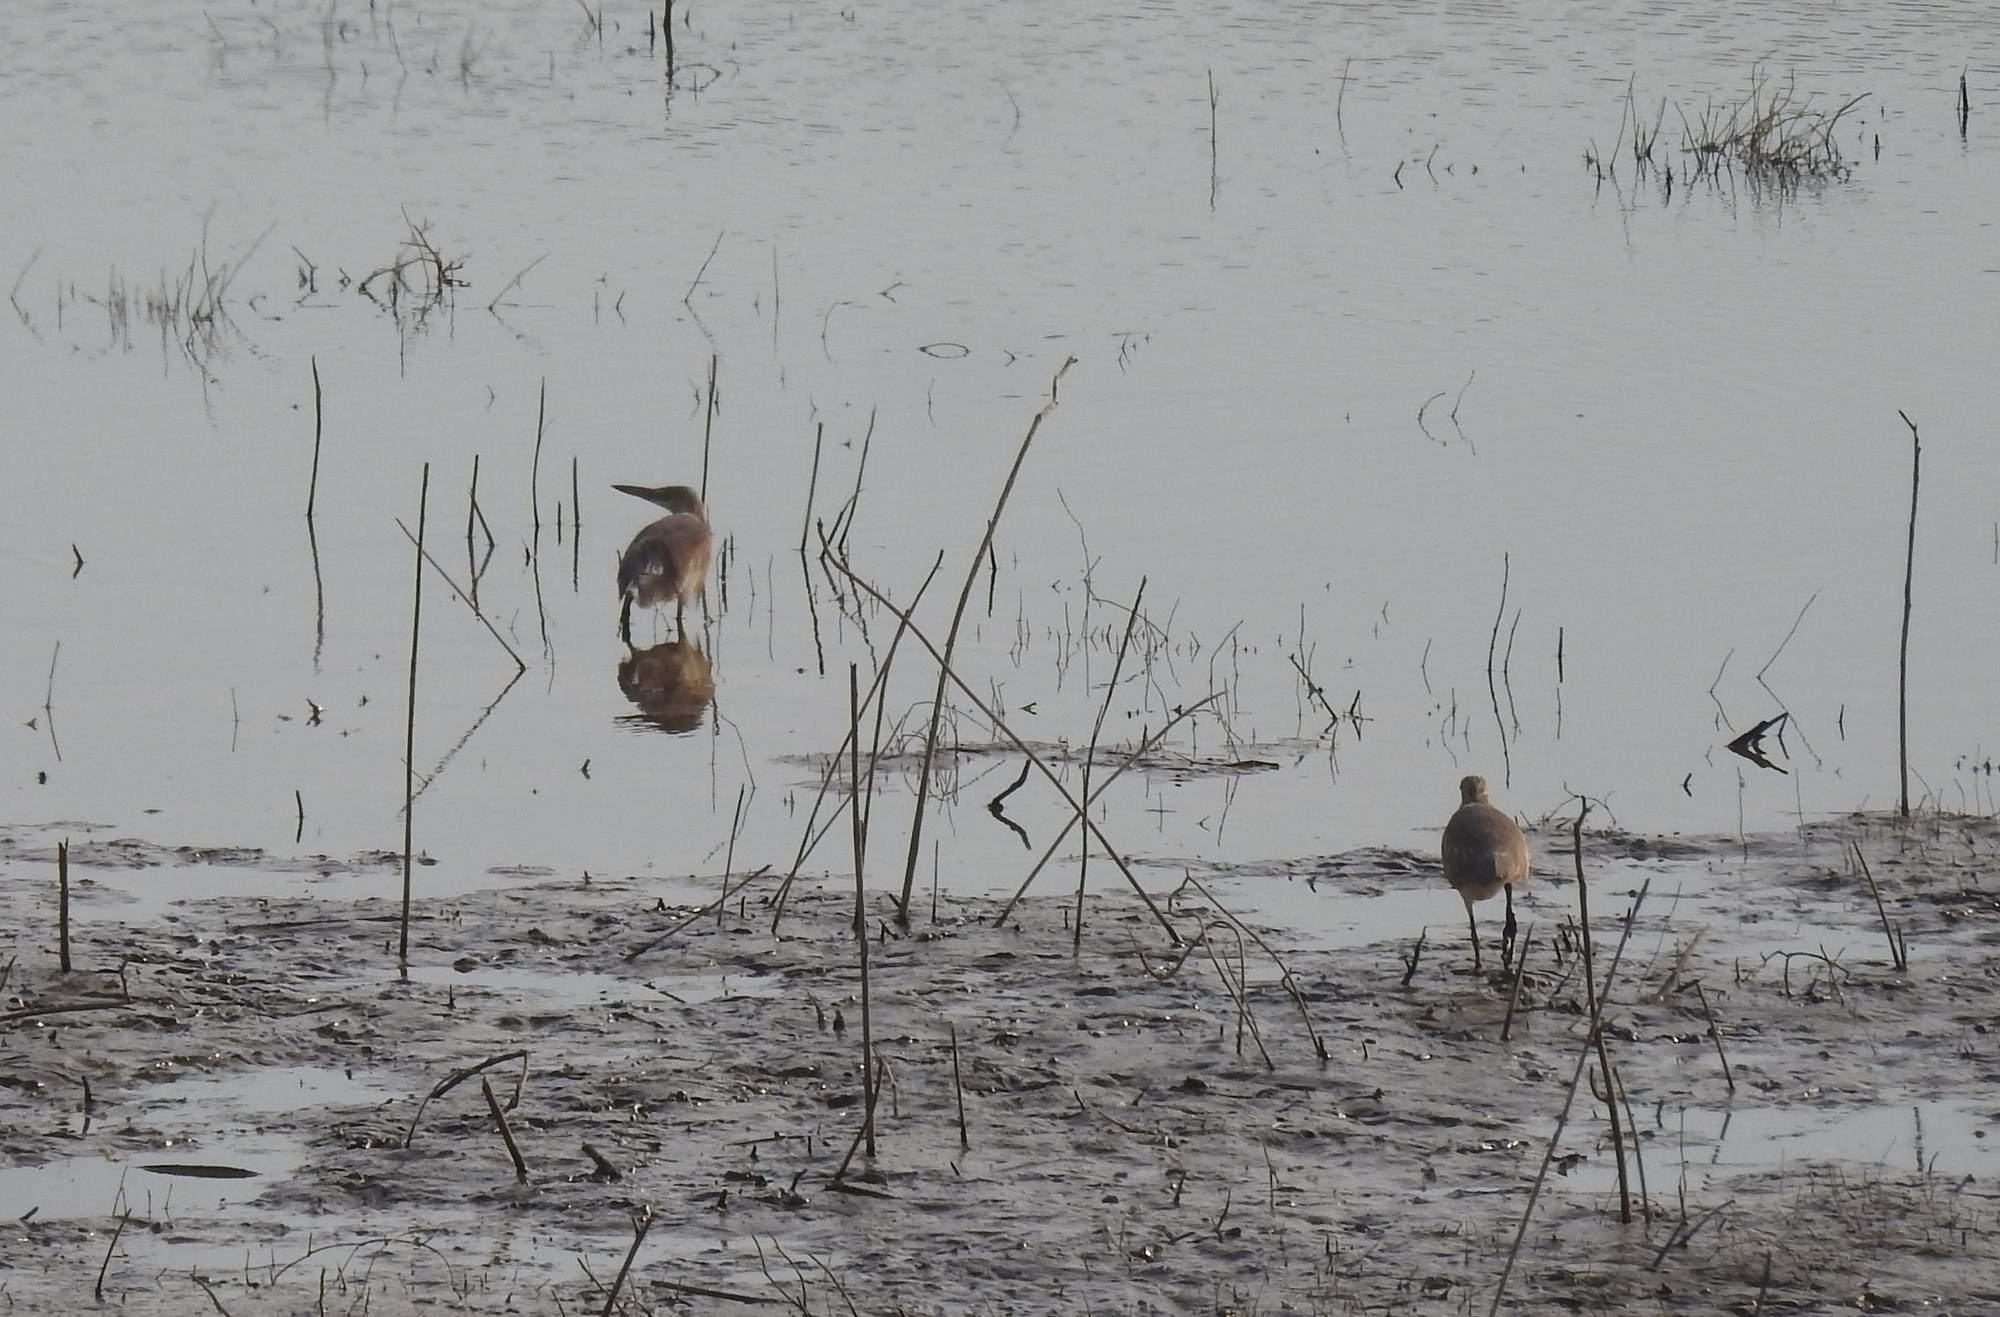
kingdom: Animalia
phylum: Chordata
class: Aves
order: Pelecaniformes
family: Ardeidae
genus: Ardeola
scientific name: Ardeola grayii
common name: Indian pond heron
